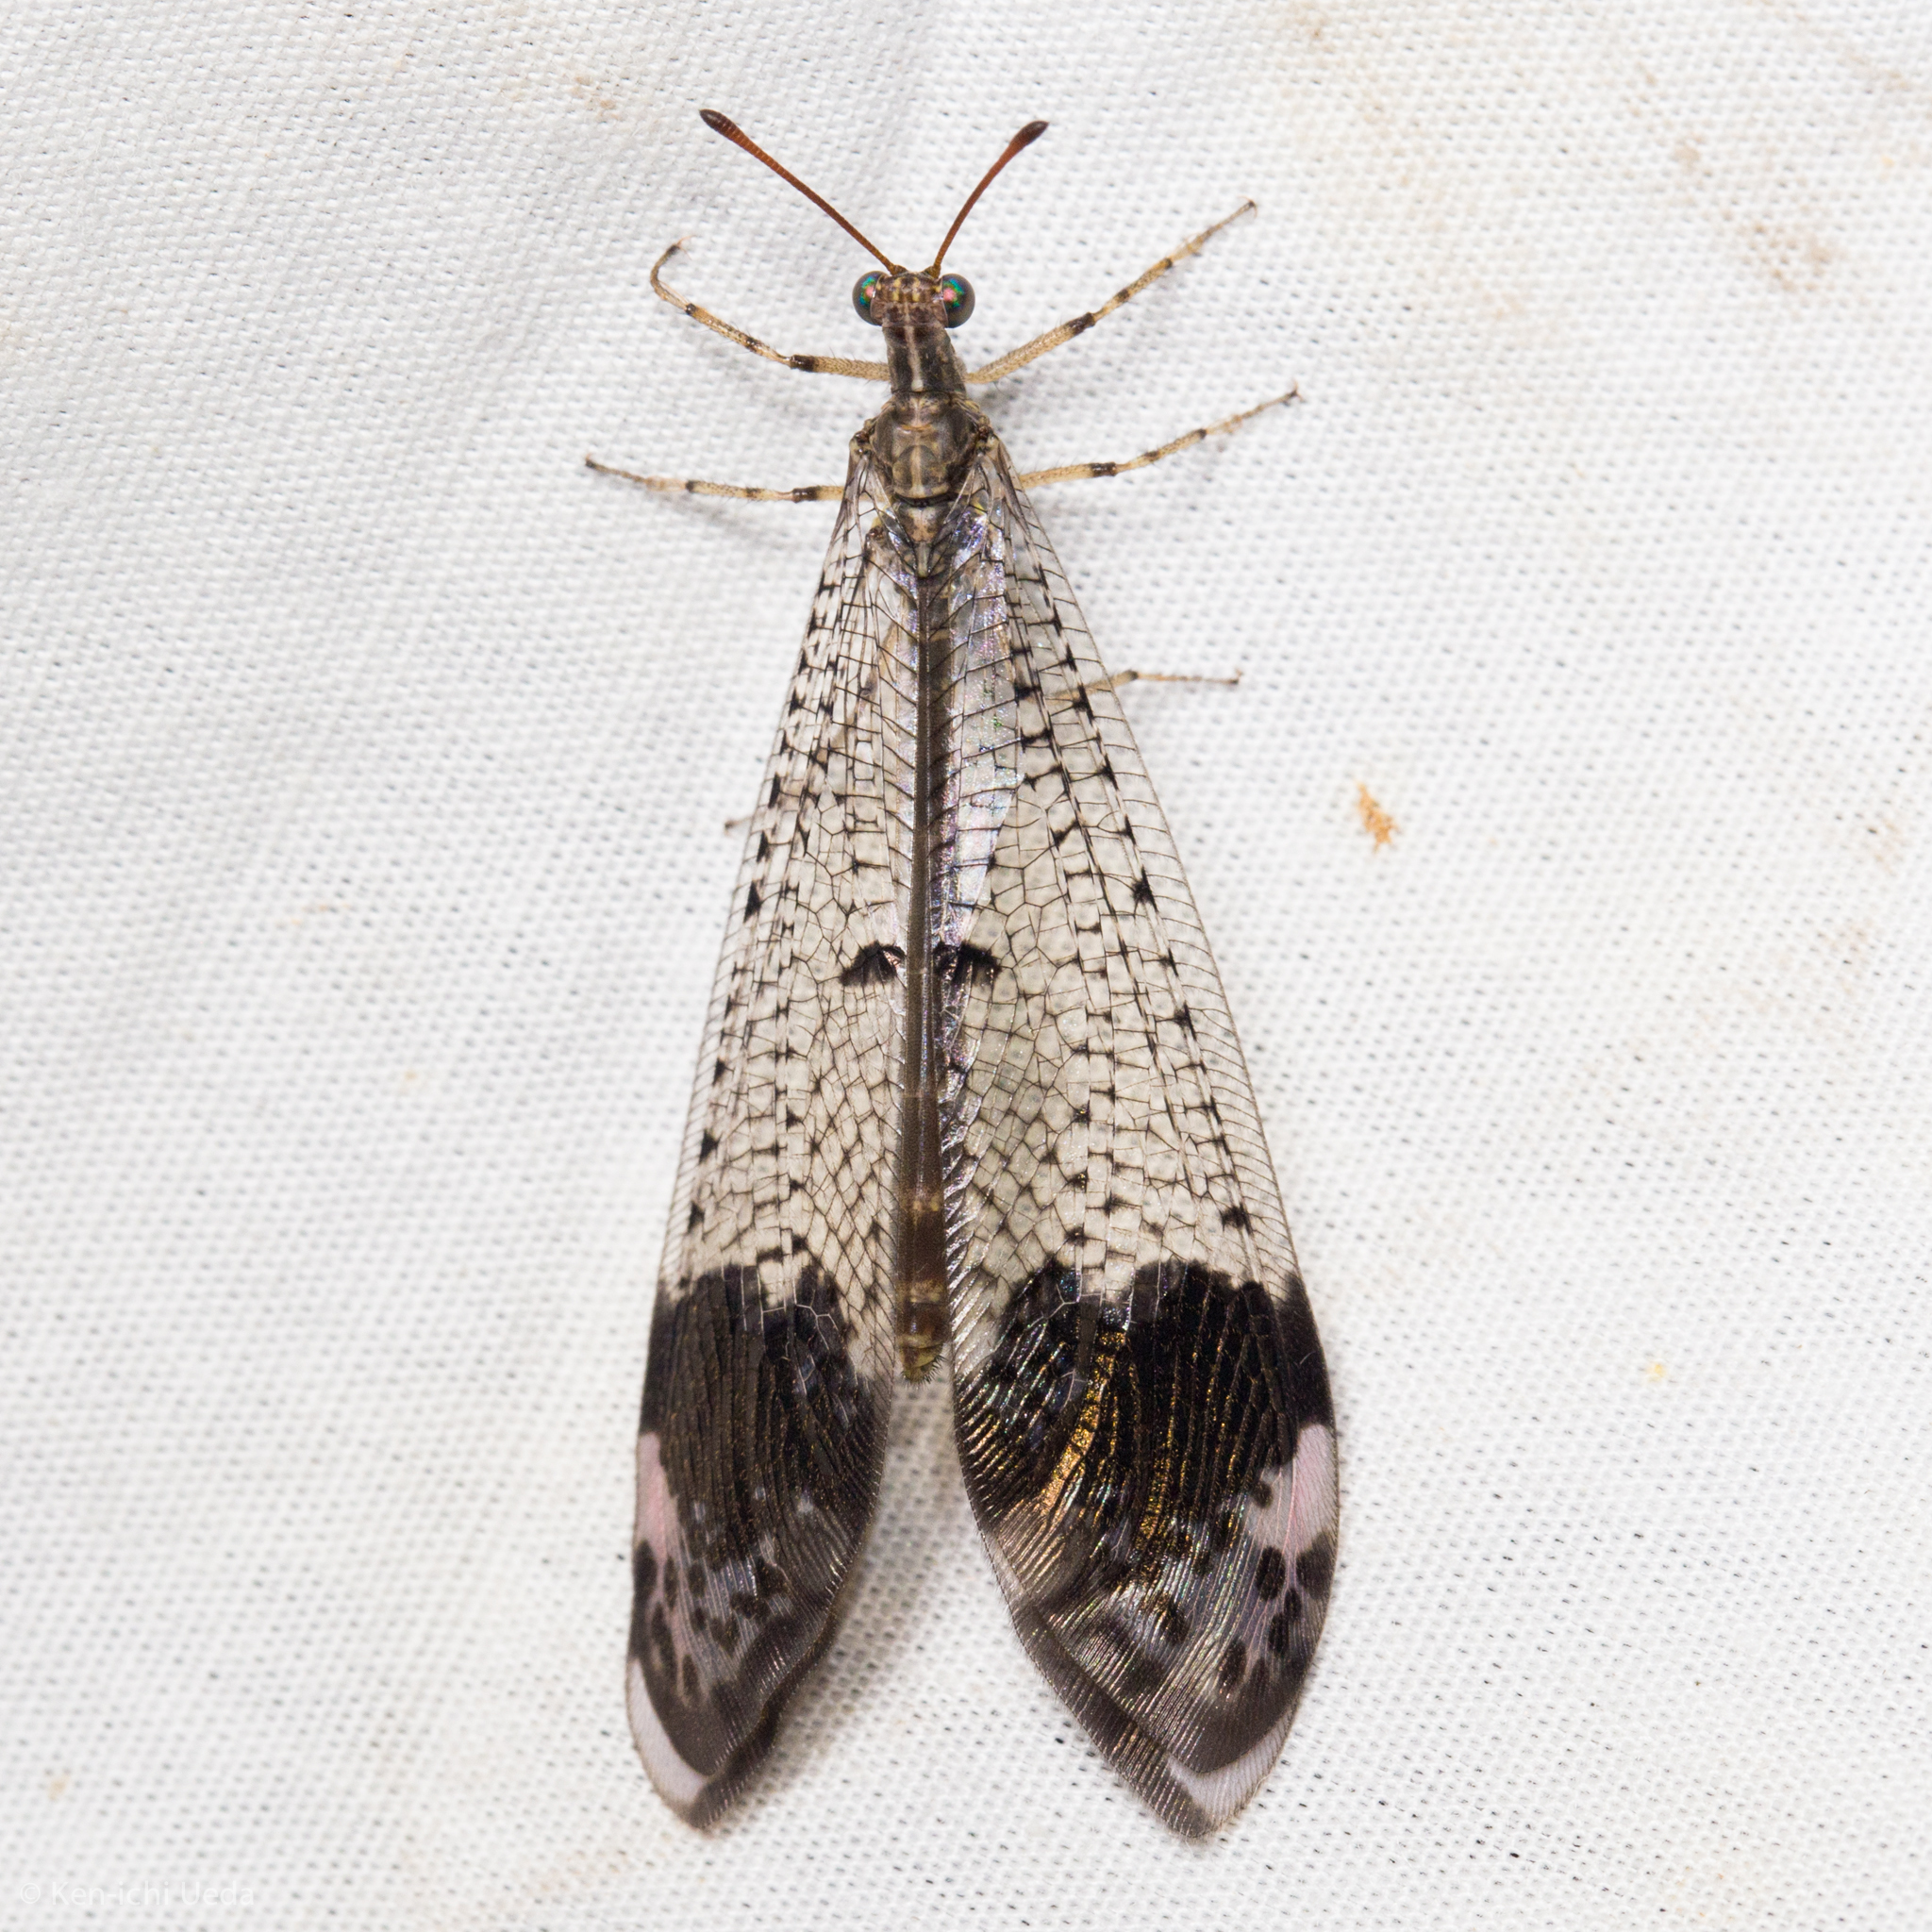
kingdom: Animalia
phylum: Arthropoda
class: Insecta
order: Neuroptera
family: Myrmeleontidae
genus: Glenurus
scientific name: Glenurus luniger
